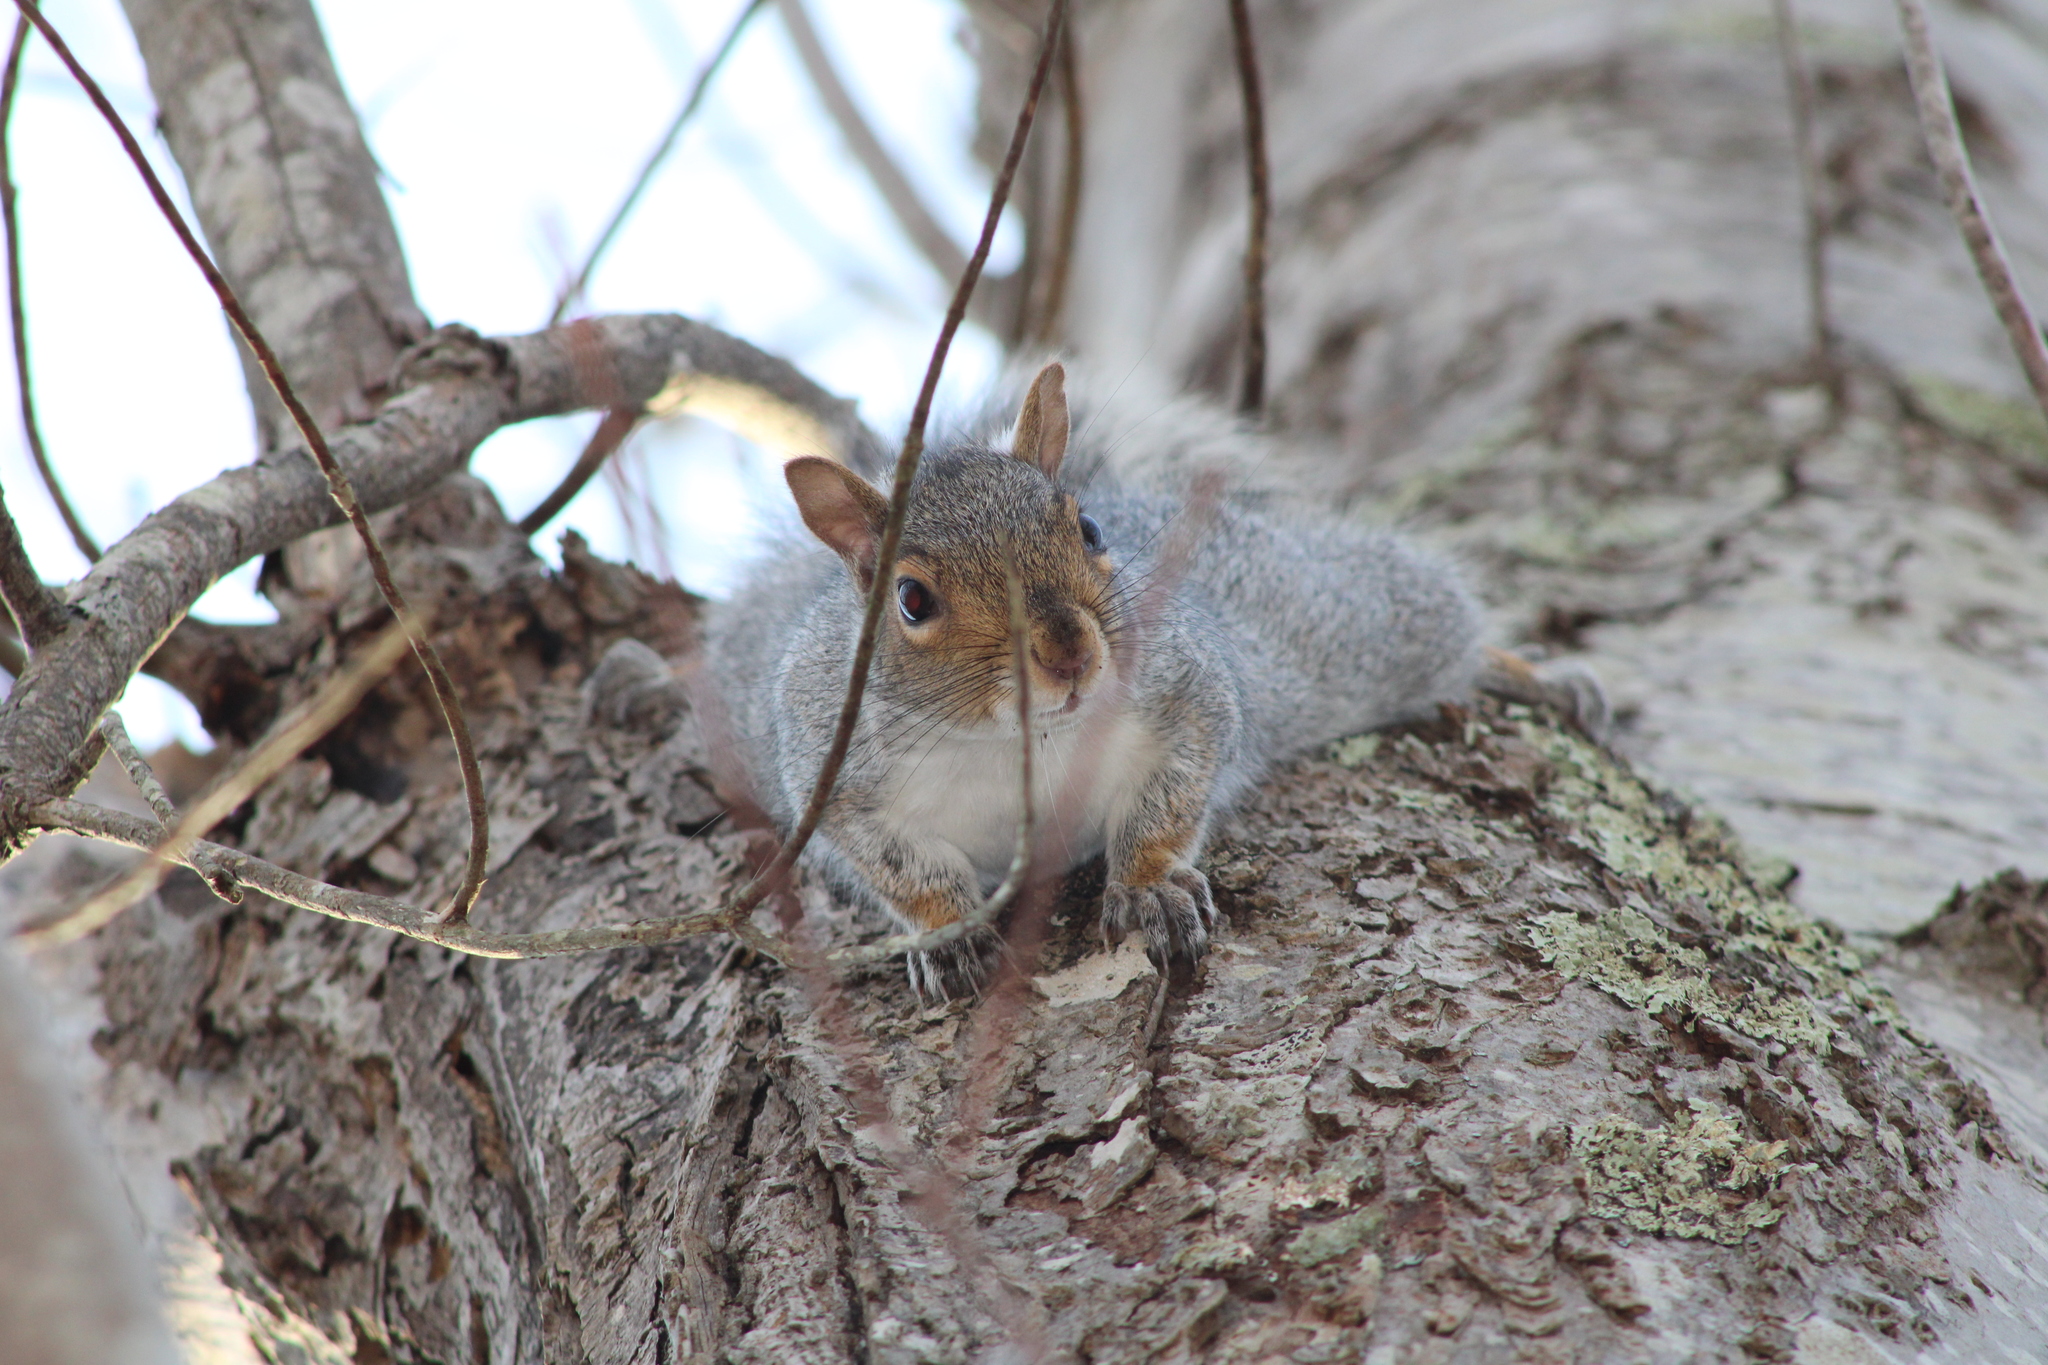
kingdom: Animalia
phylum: Chordata
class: Mammalia
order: Rodentia
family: Sciuridae
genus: Sciurus
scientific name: Sciurus carolinensis
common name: Eastern gray squirrel
